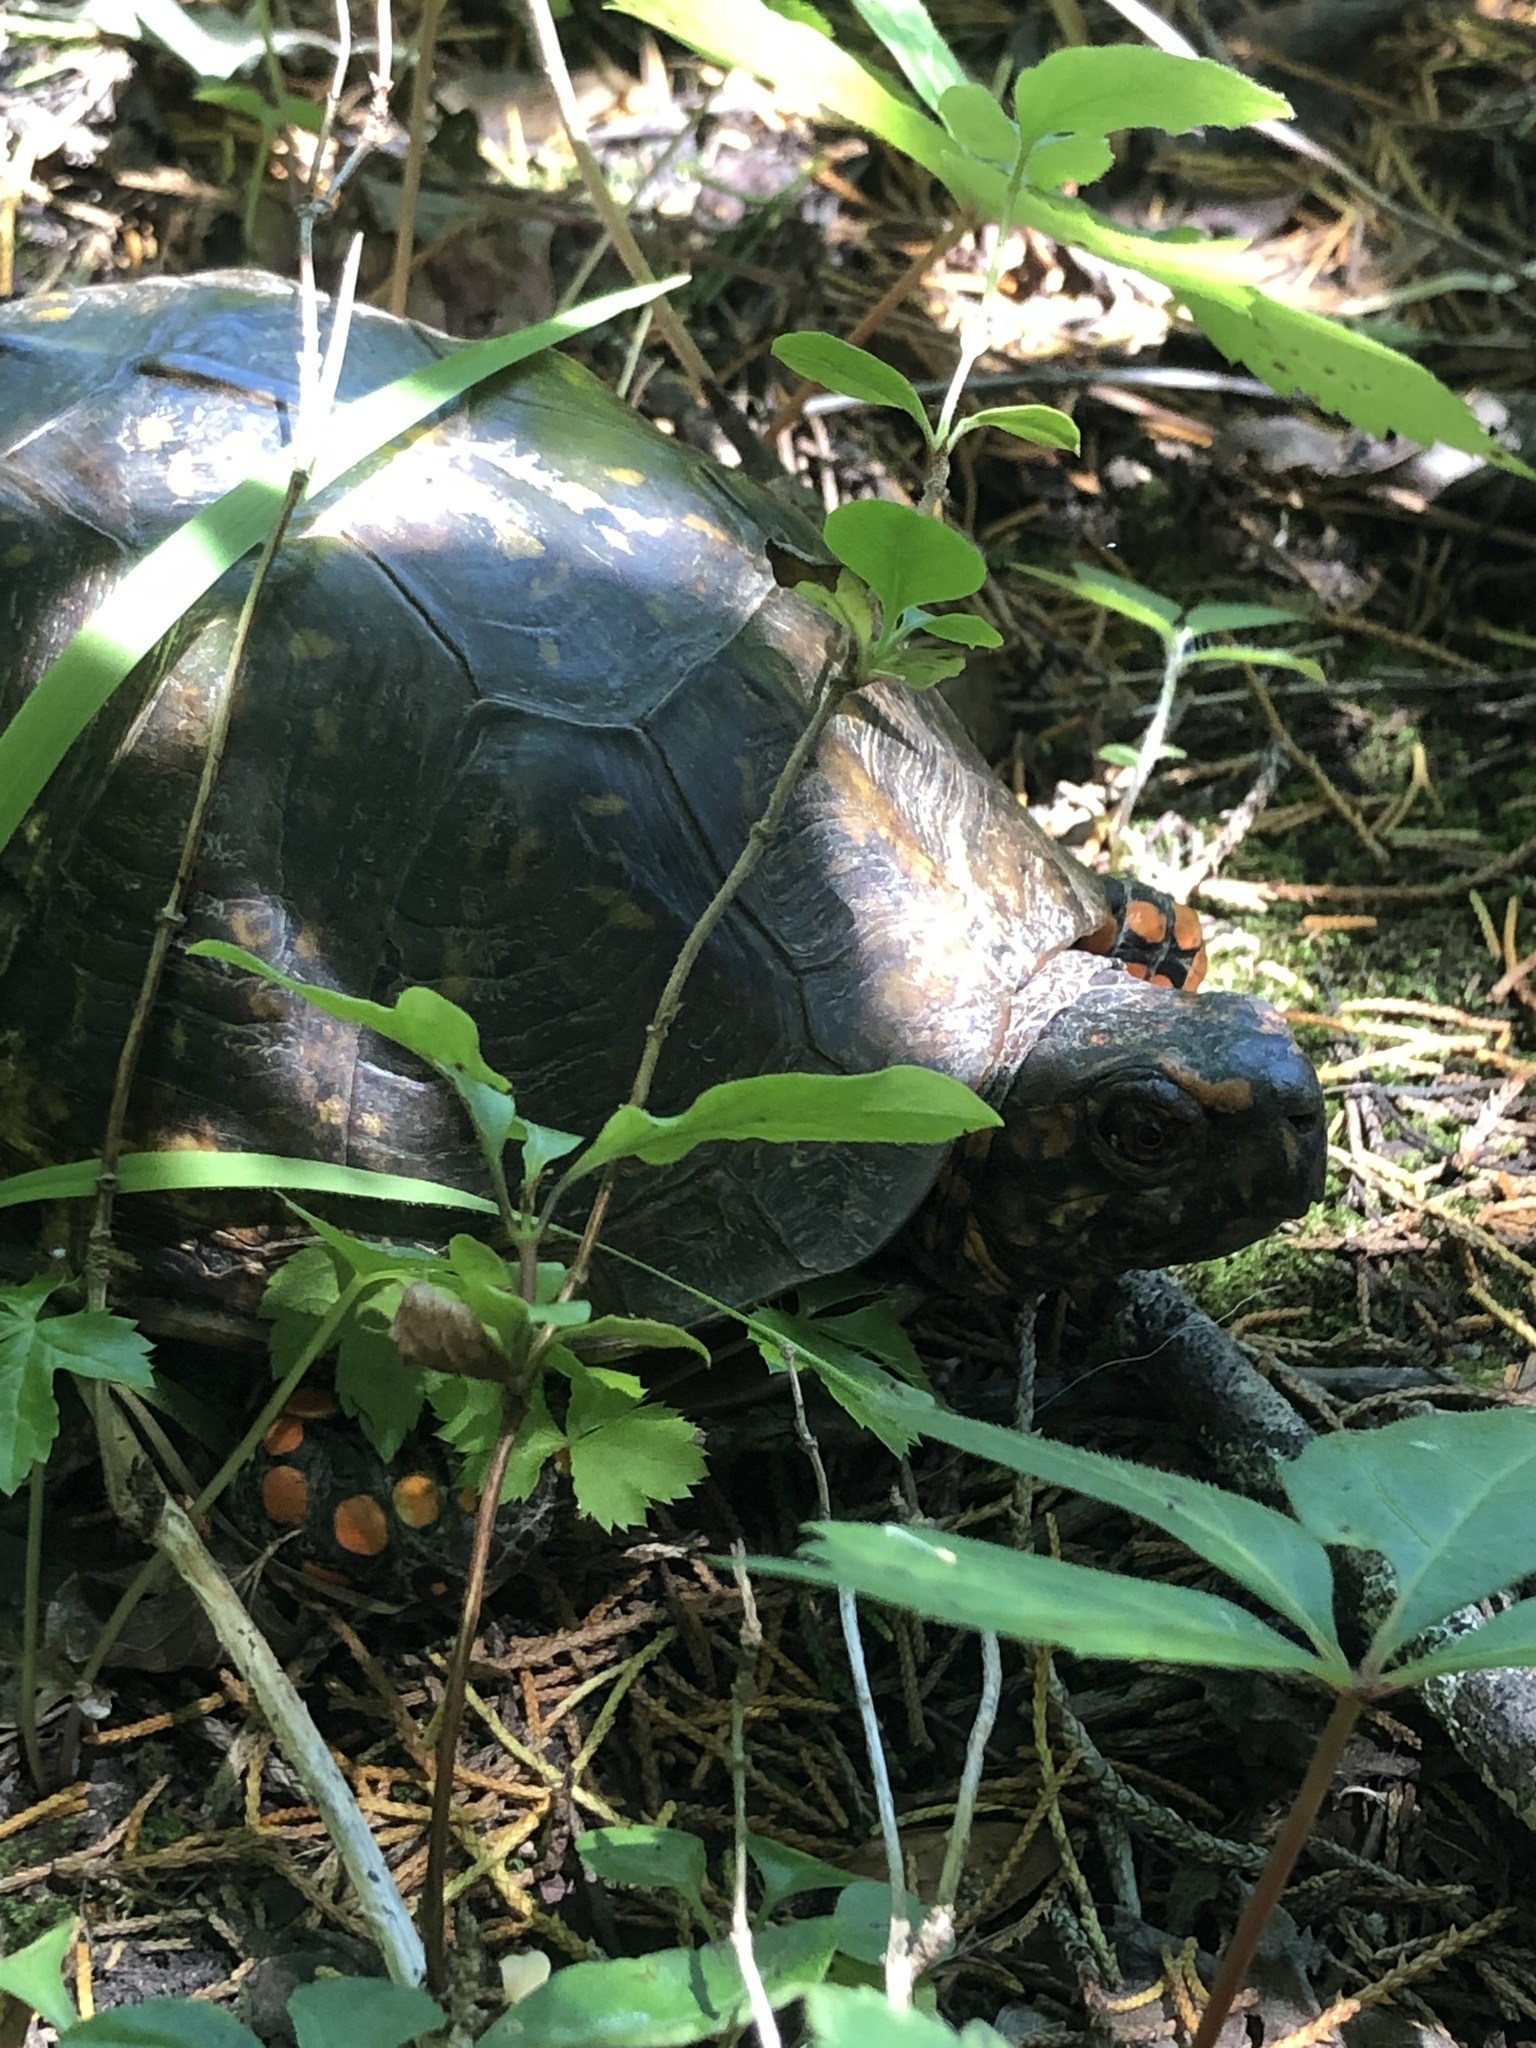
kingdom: Animalia
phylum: Chordata
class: Testudines
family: Emydidae
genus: Terrapene
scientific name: Terrapene carolina
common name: Common box turtle
